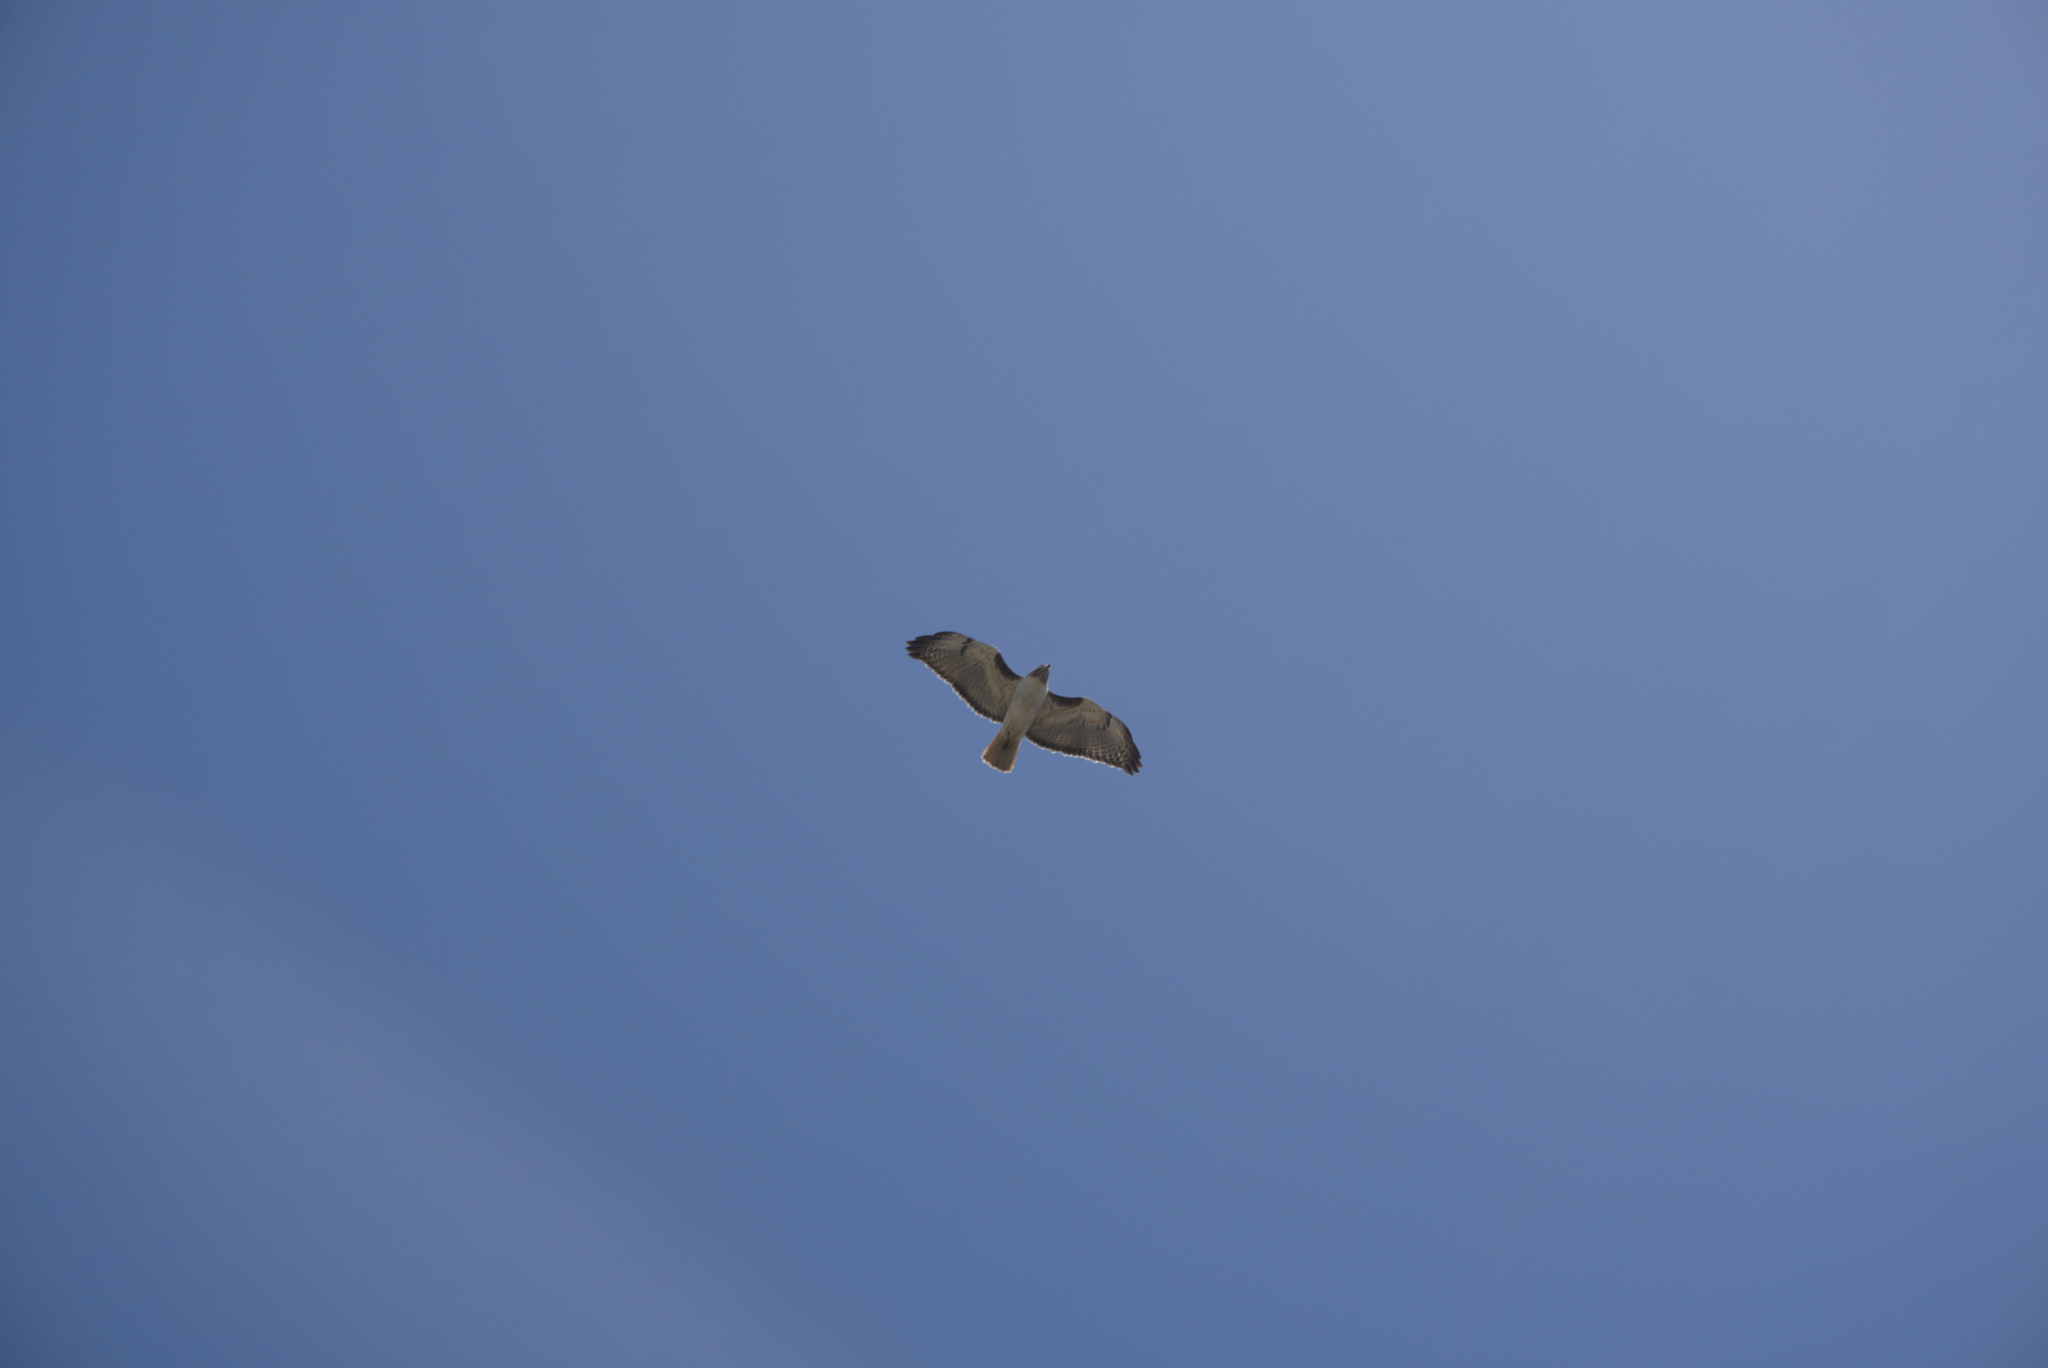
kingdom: Animalia
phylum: Chordata
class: Aves
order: Accipitriformes
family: Accipitridae
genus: Buteo
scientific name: Buteo jamaicensis
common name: Red-tailed hawk
